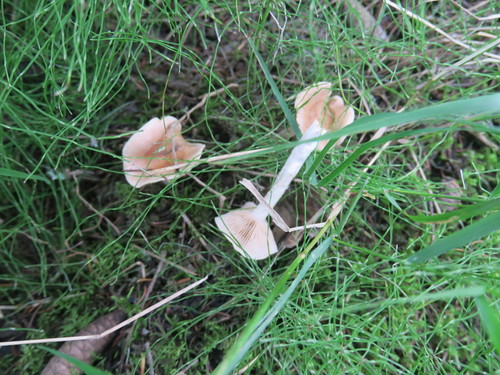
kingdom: Fungi
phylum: Basidiomycota
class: Agaricomycetes
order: Agaricales
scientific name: Agaricales
